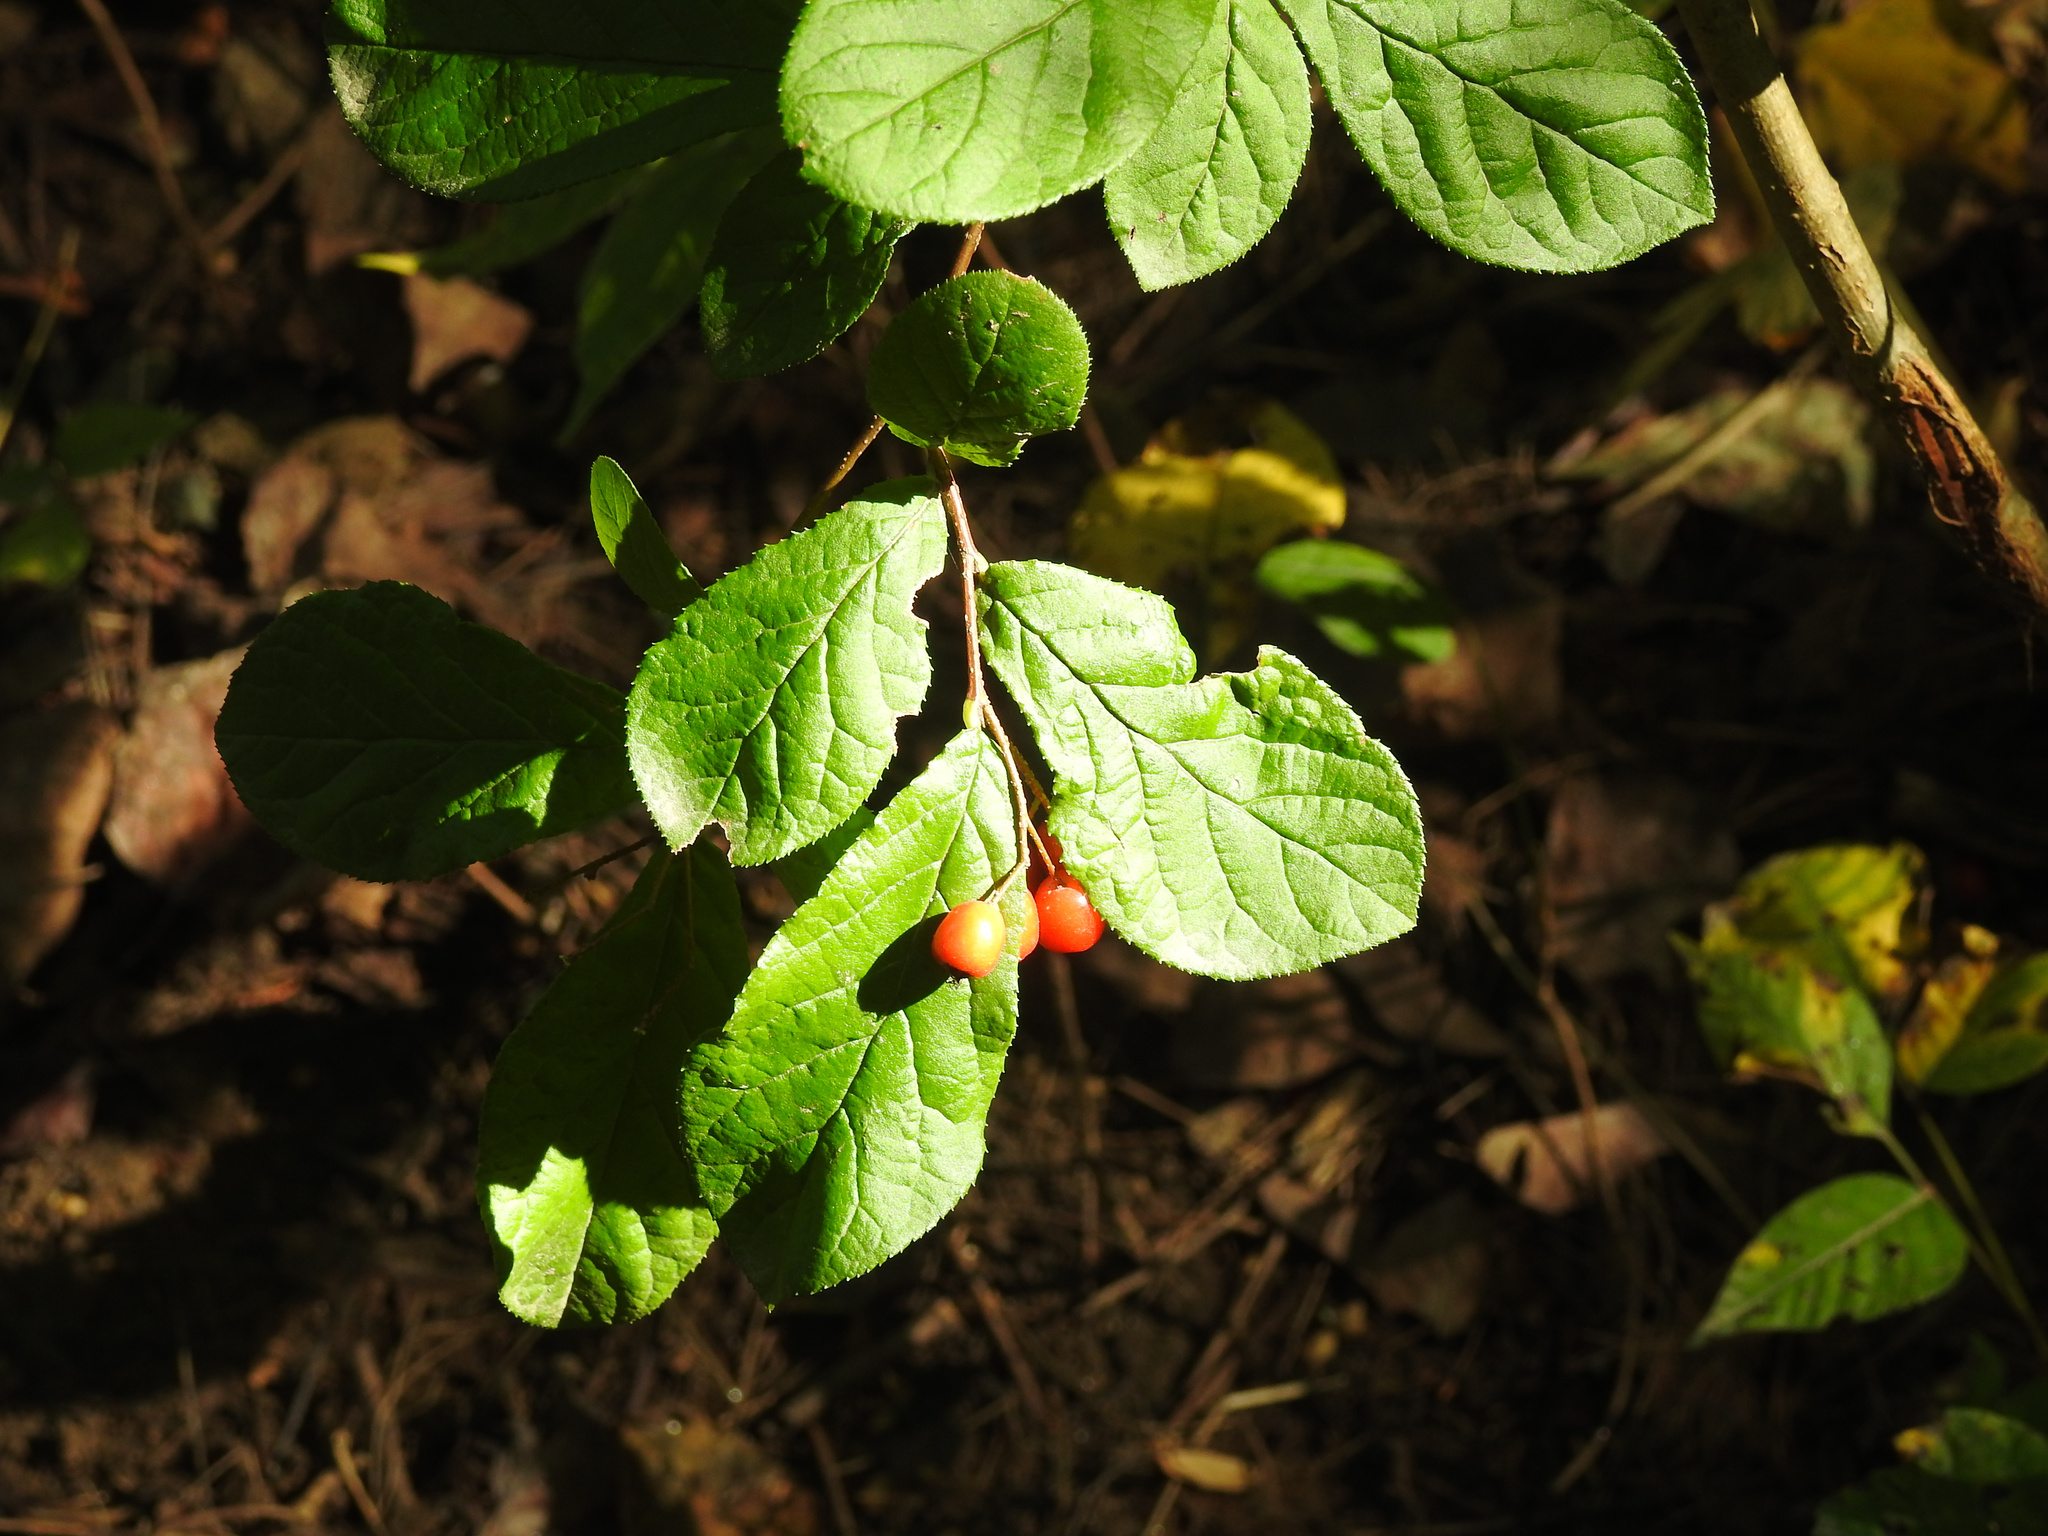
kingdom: Plantae
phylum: Tracheophyta
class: Magnoliopsida
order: Rosales
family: Rosaceae
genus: Pourthiaea
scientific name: Pourthiaea villosa
